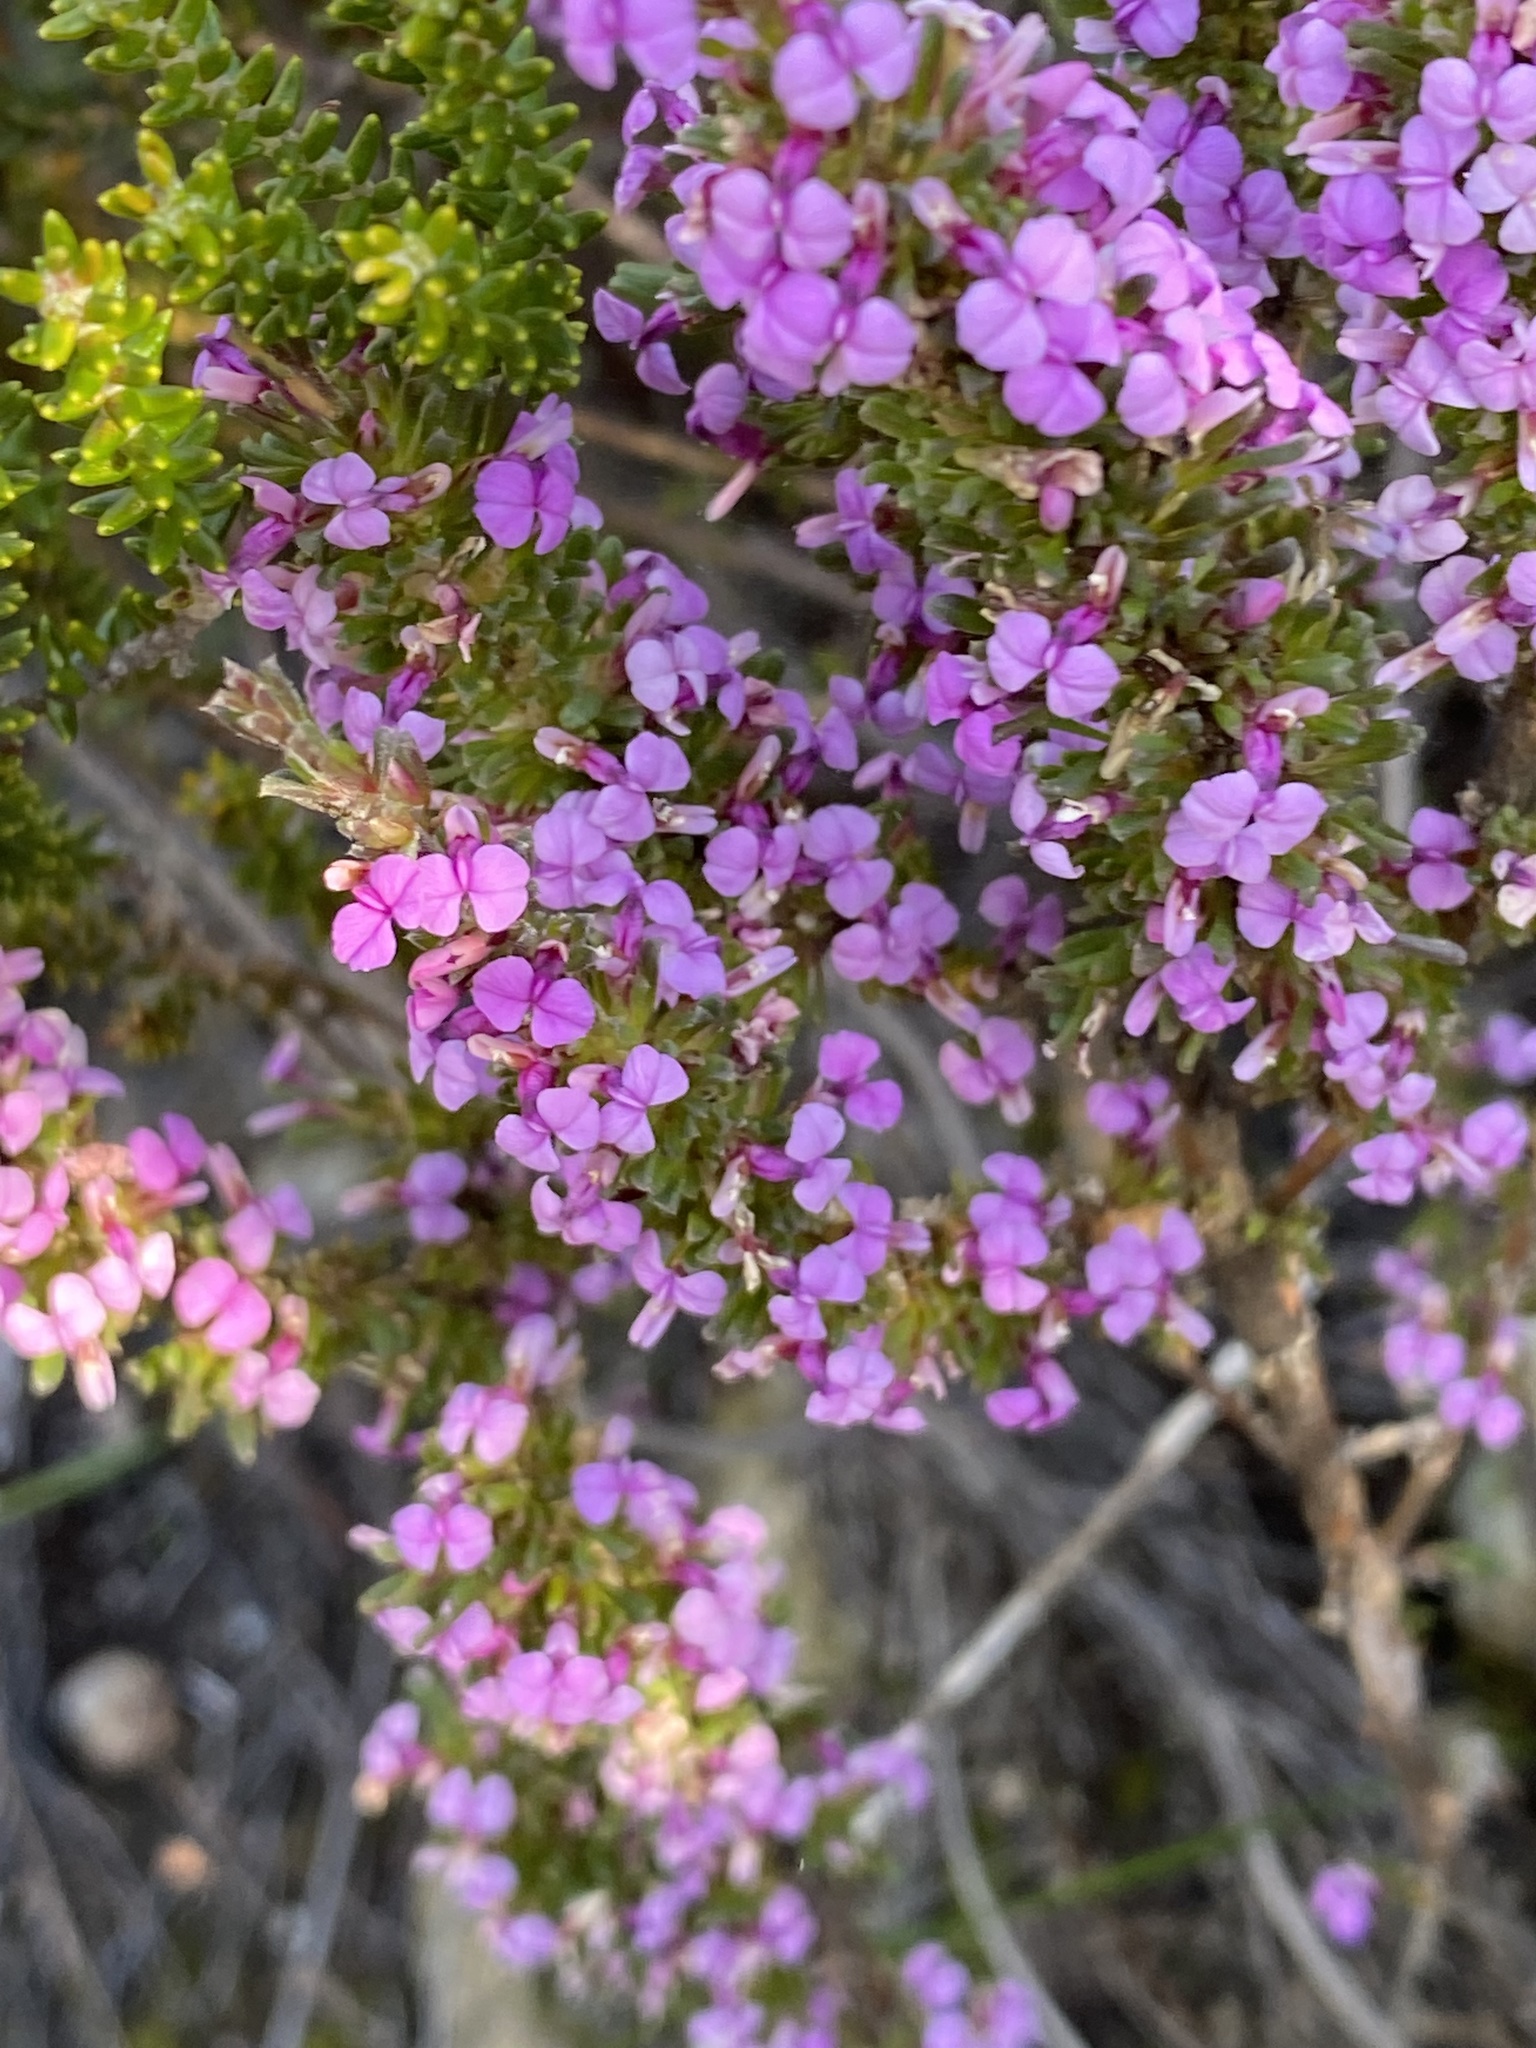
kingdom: Plantae
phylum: Tracheophyta
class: Magnoliopsida
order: Fabales
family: Polygalaceae
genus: Muraltia
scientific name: Muraltia barkerae
